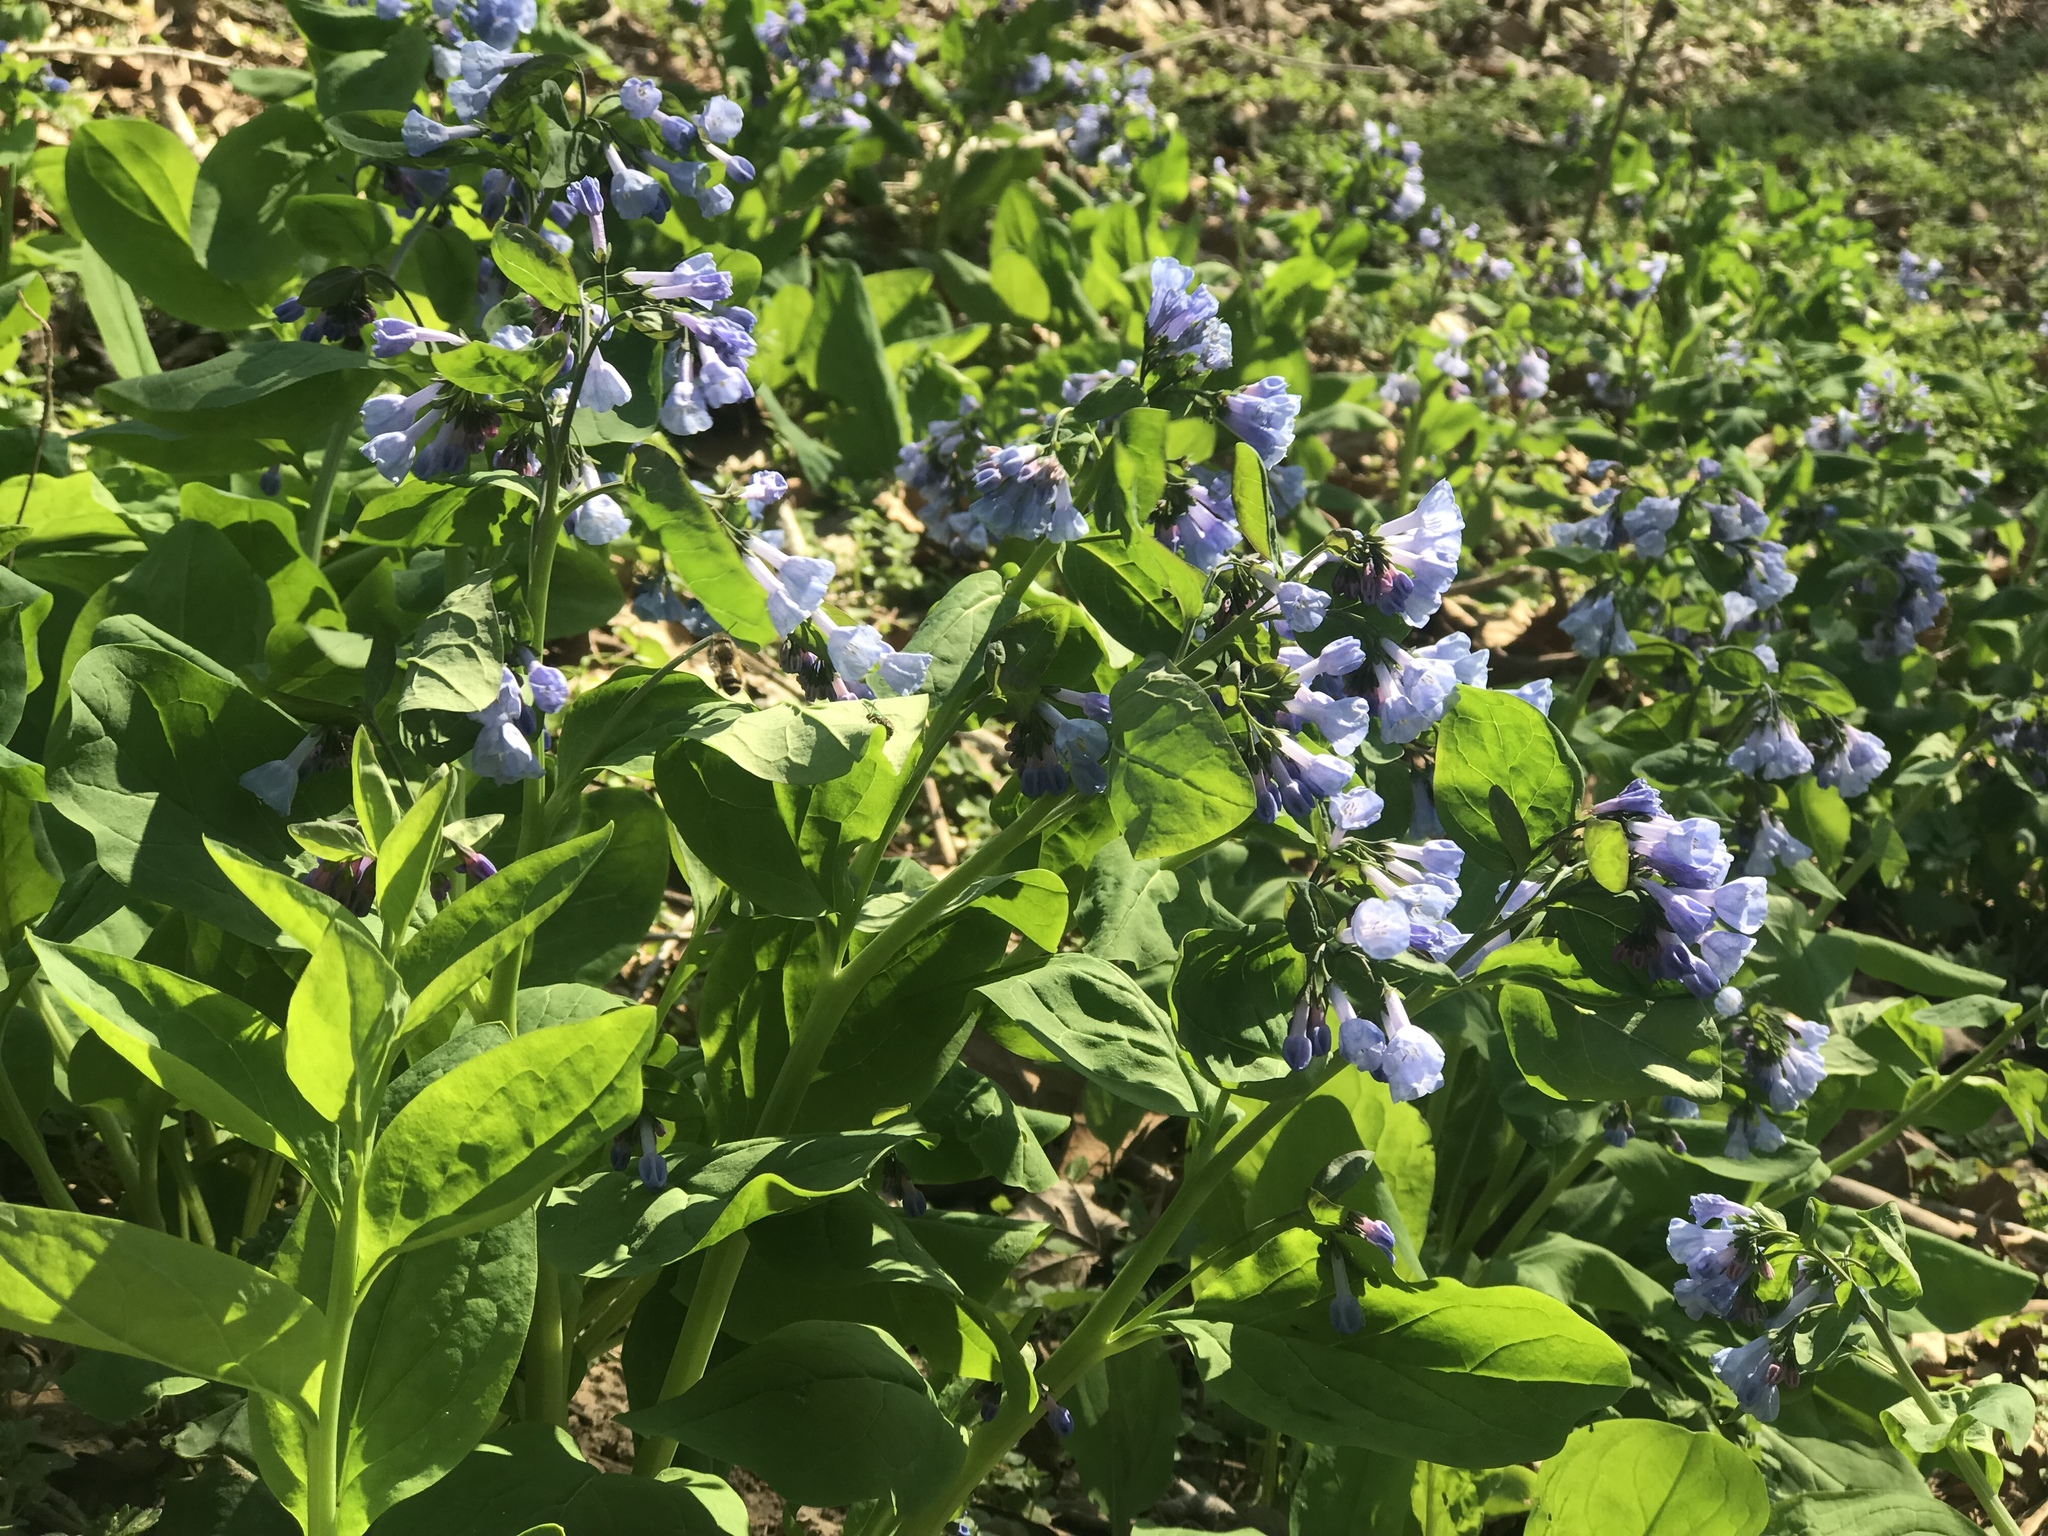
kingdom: Plantae
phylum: Tracheophyta
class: Magnoliopsida
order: Boraginales
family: Boraginaceae
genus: Mertensia
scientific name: Mertensia virginica
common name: Virginia bluebells
